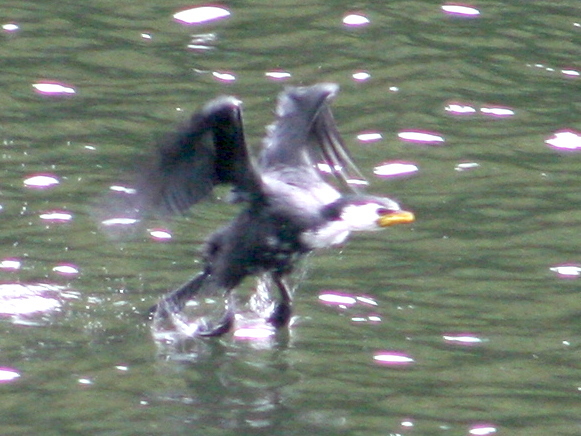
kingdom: Animalia
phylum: Chordata
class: Aves
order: Suliformes
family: Phalacrocoracidae
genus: Microcarbo
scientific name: Microcarbo melanoleucos
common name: Little pied cormorant
